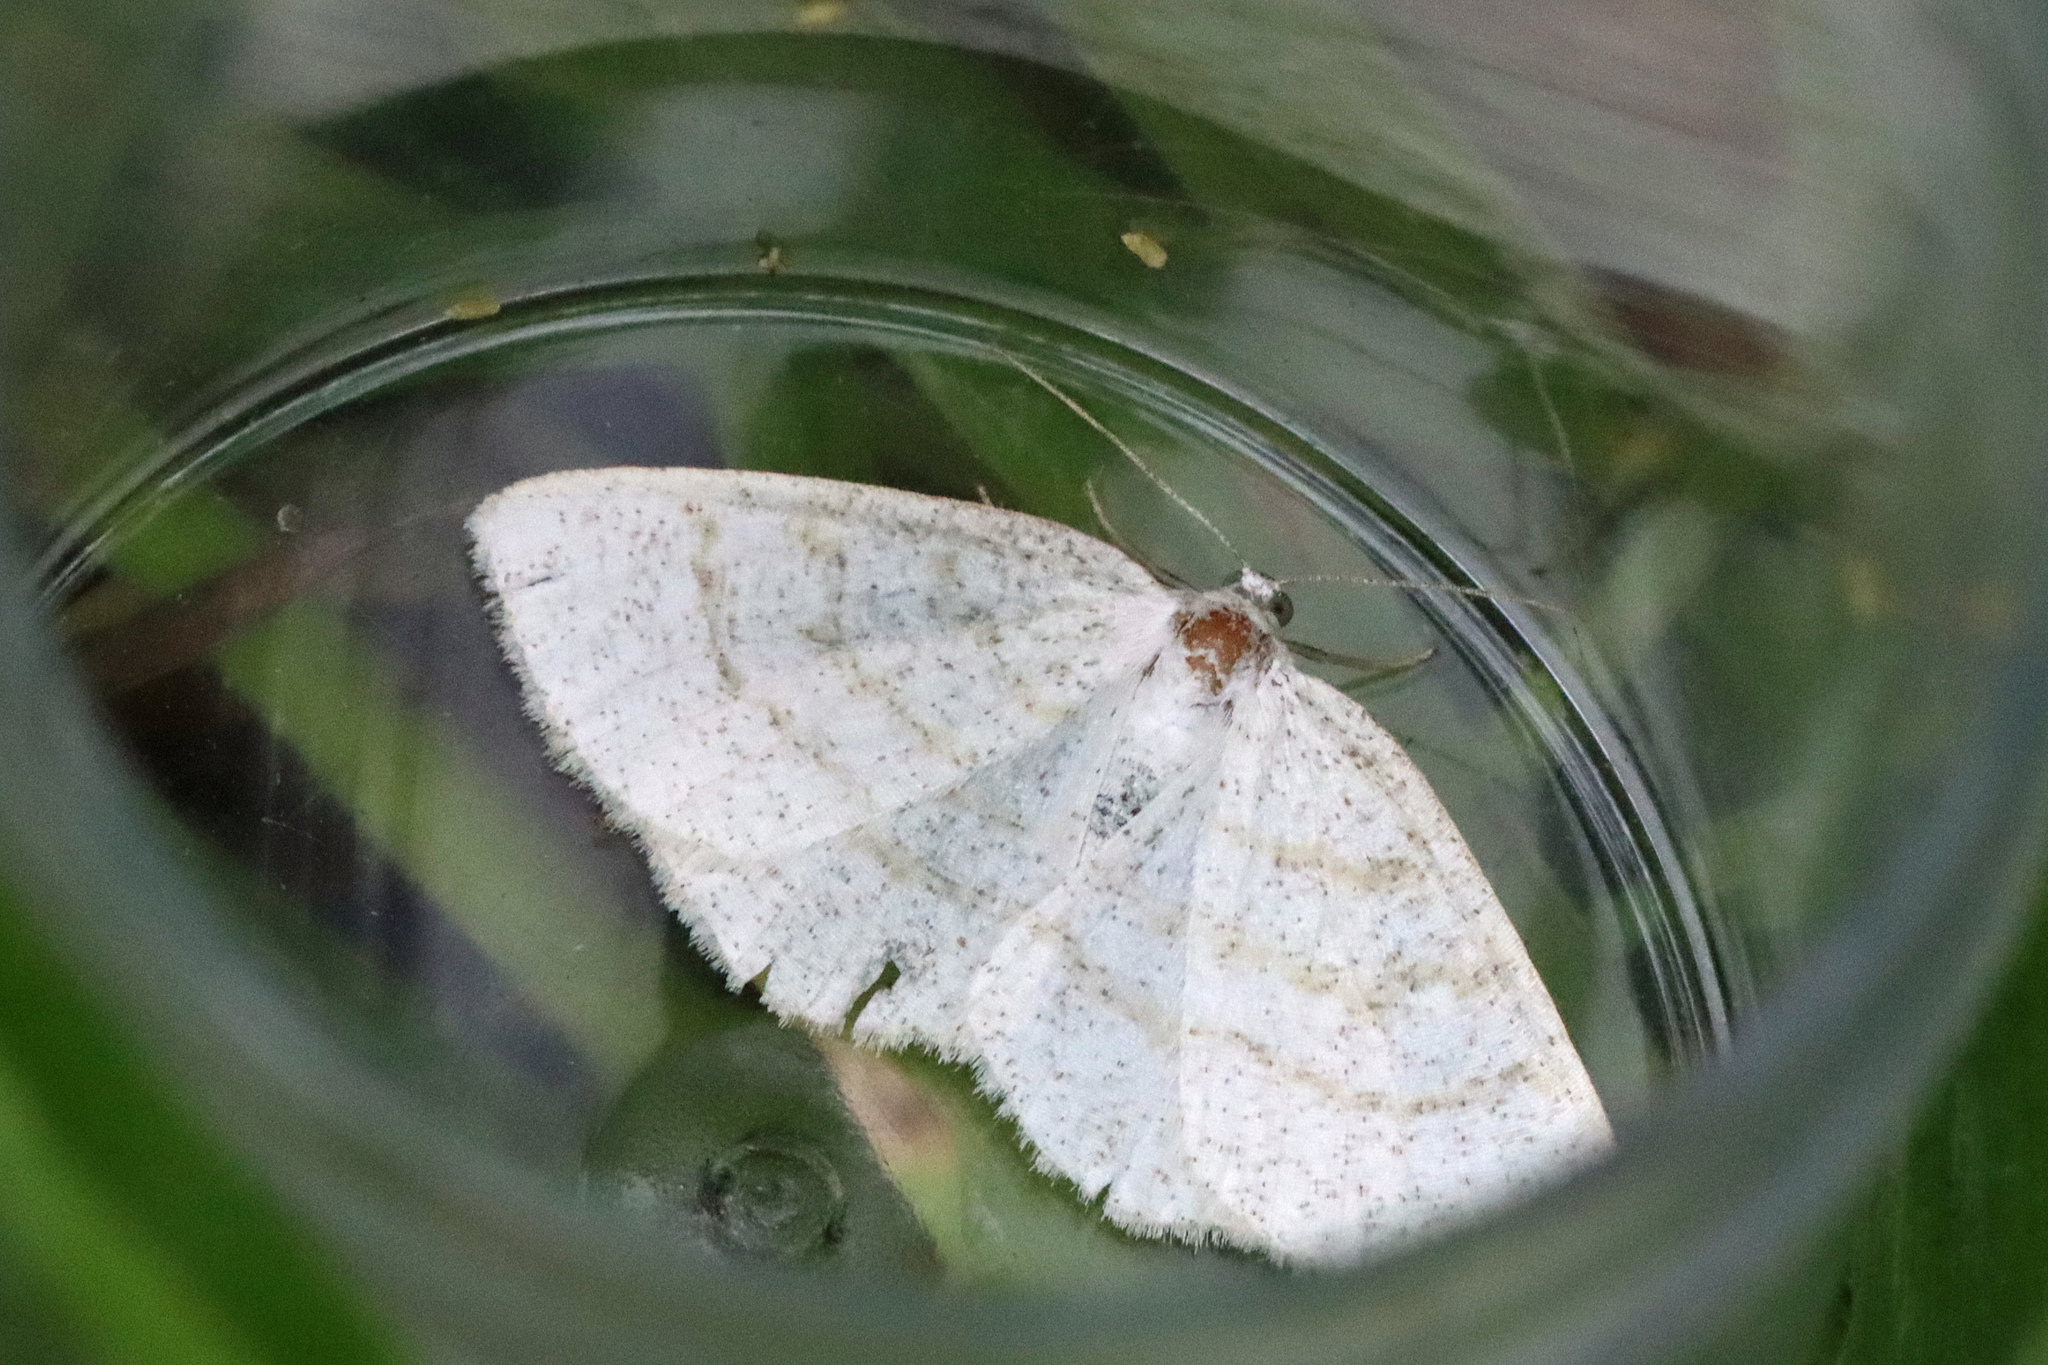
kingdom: Animalia
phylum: Arthropoda
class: Insecta
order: Lepidoptera
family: Geometridae
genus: Cabera
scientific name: Cabera exanthemata
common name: Common wave
